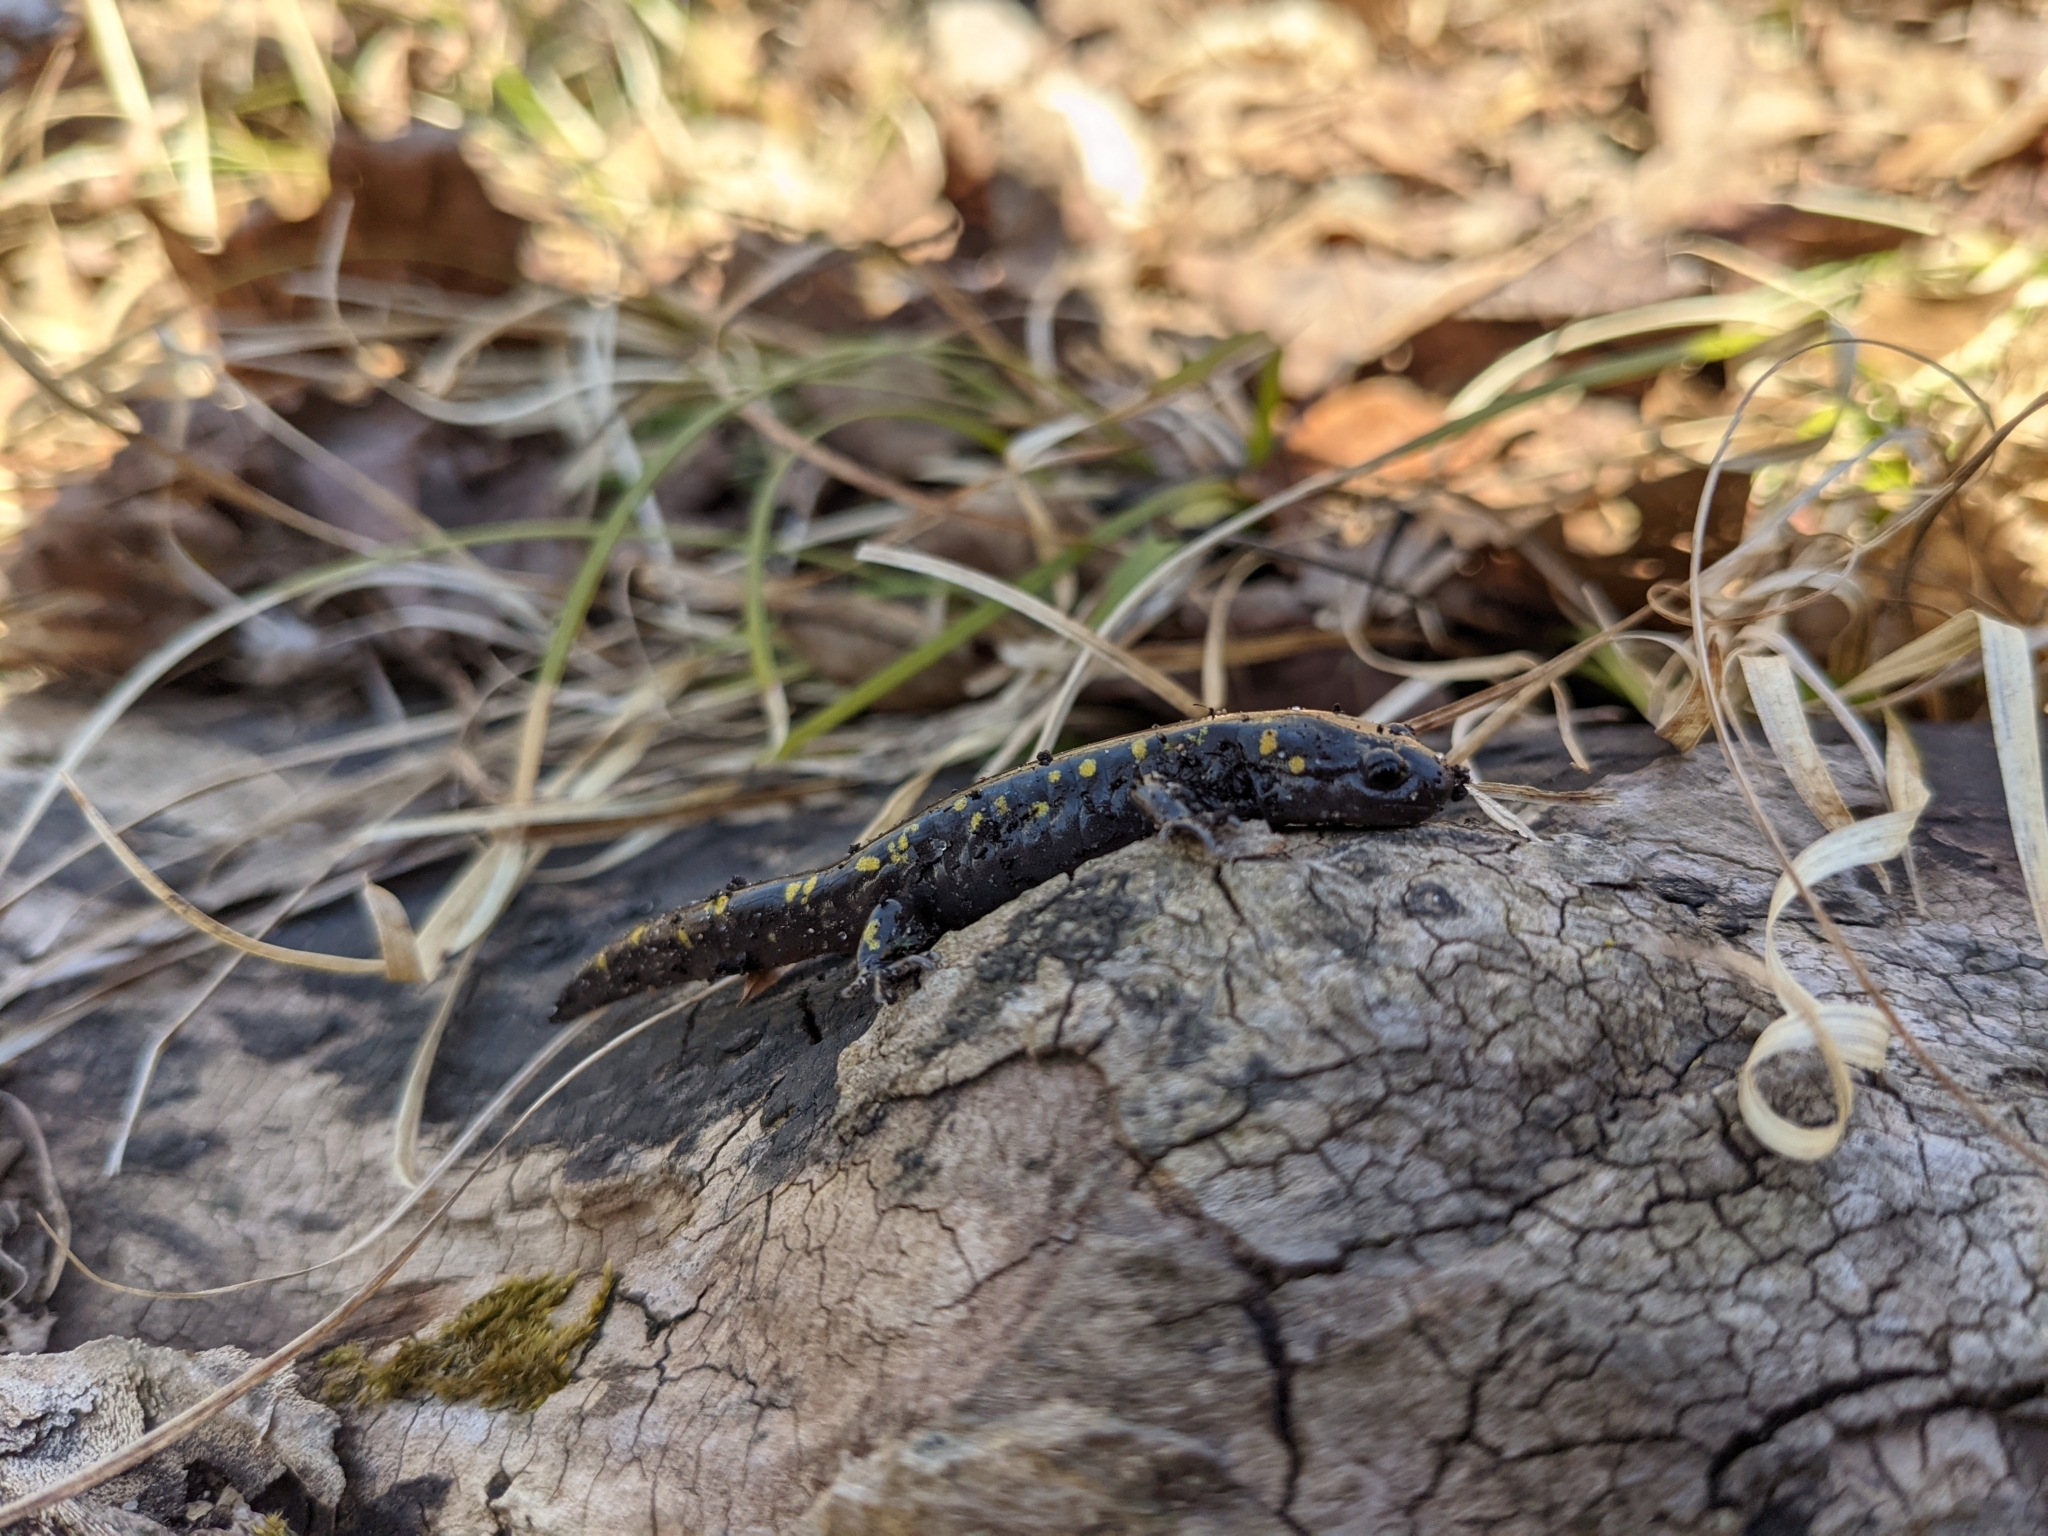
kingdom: Animalia
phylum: Chordata
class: Amphibia
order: Caudata
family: Ambystomatidae
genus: Ambystoma
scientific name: Ambystoma maculatum
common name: Spotted salamander
